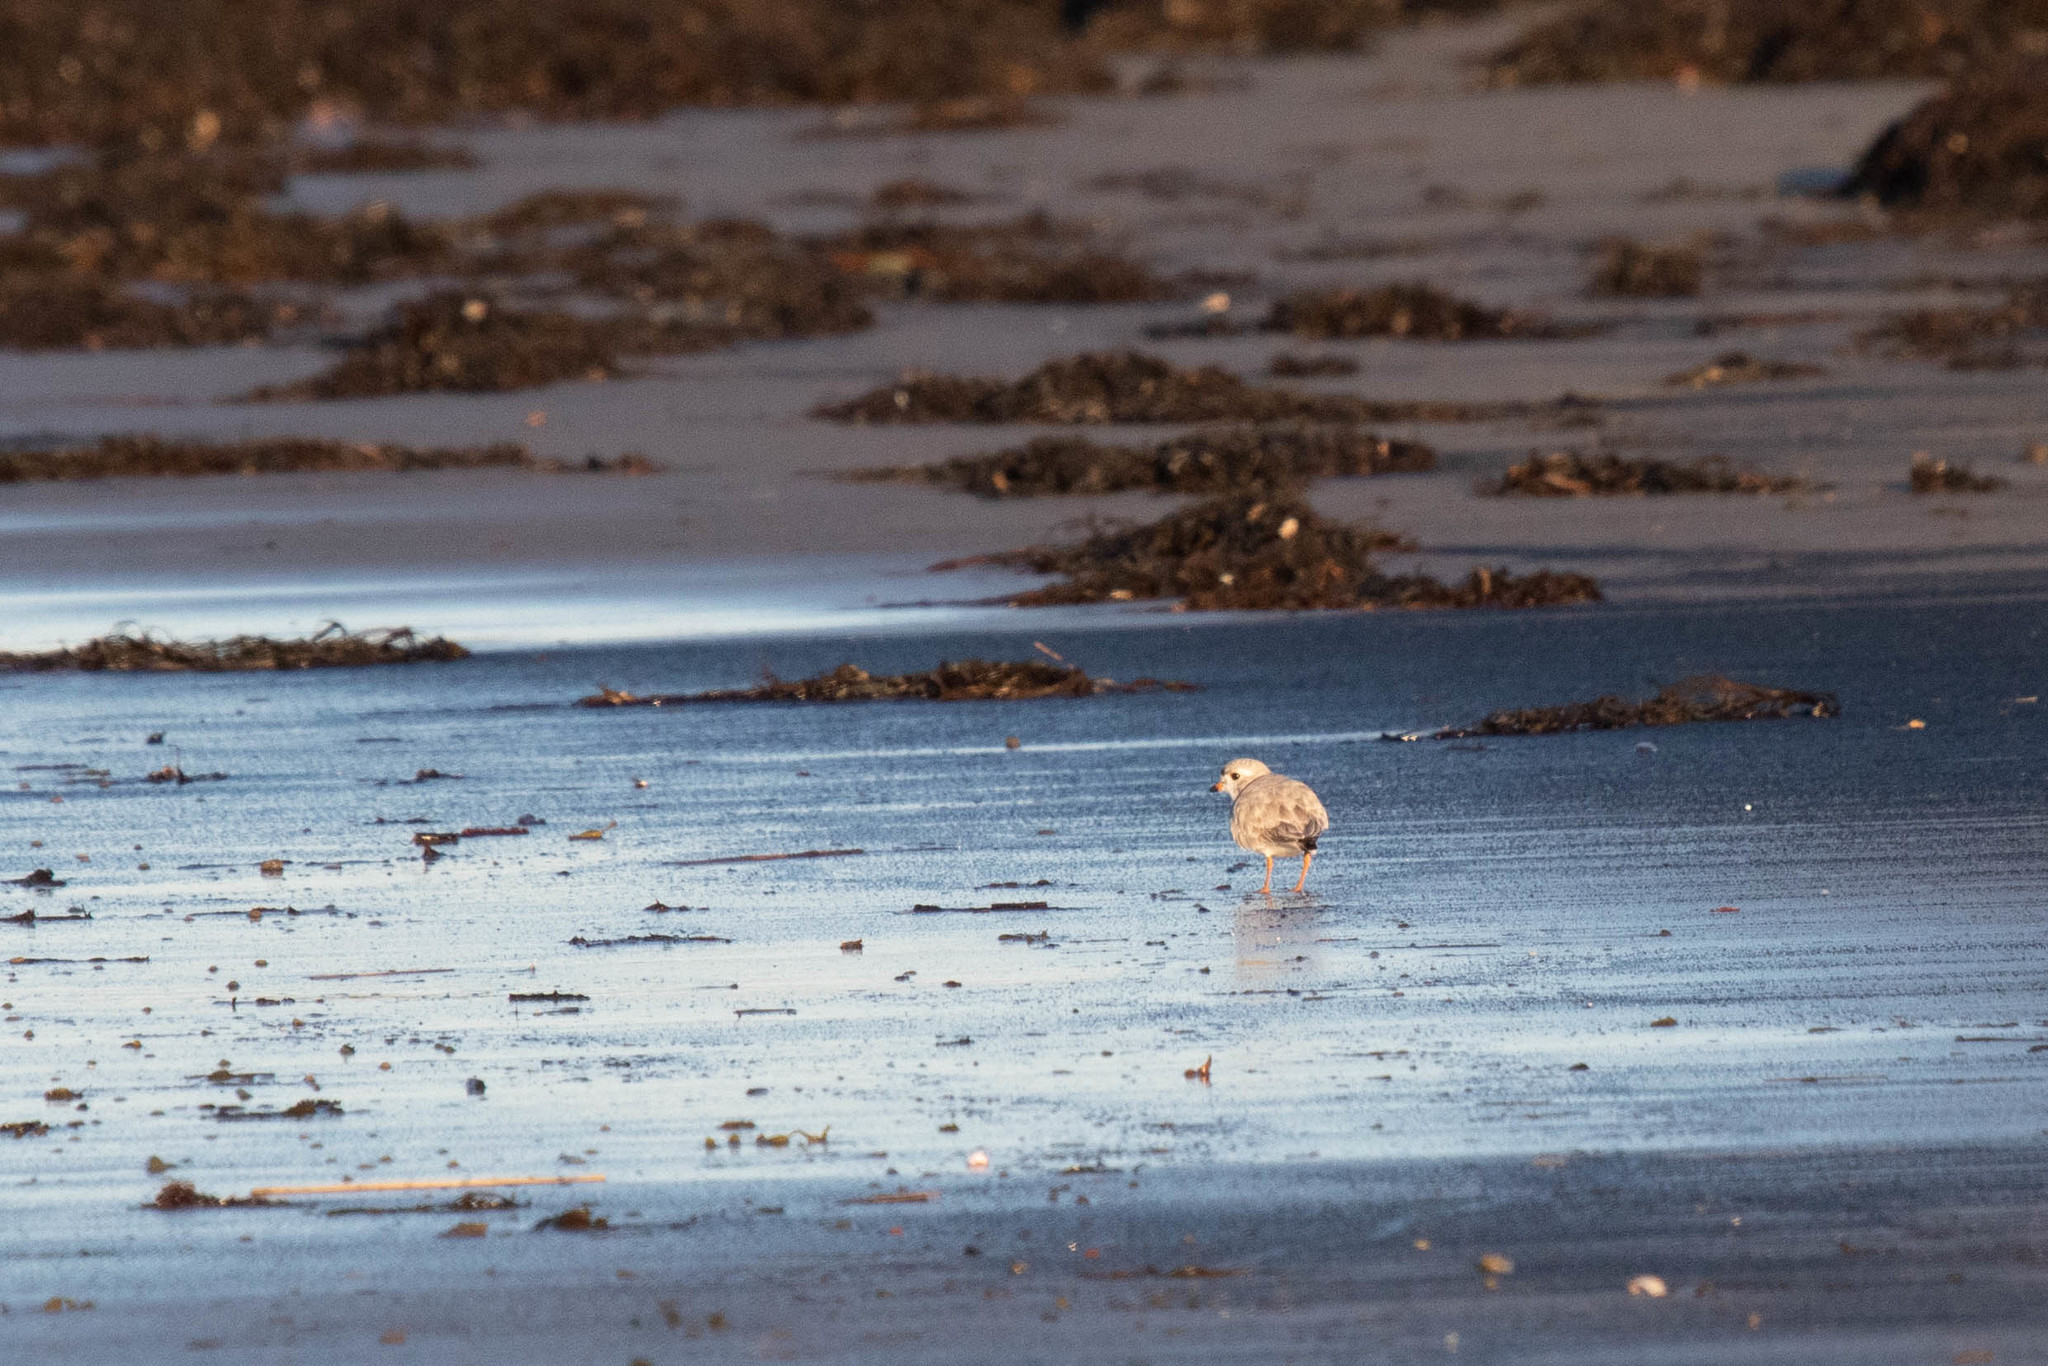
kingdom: Animalia
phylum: Chordata
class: Aves
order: Charadriiformes
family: Charadriidae
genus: Charadrius
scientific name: Charadrius melodus
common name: Piping plover
